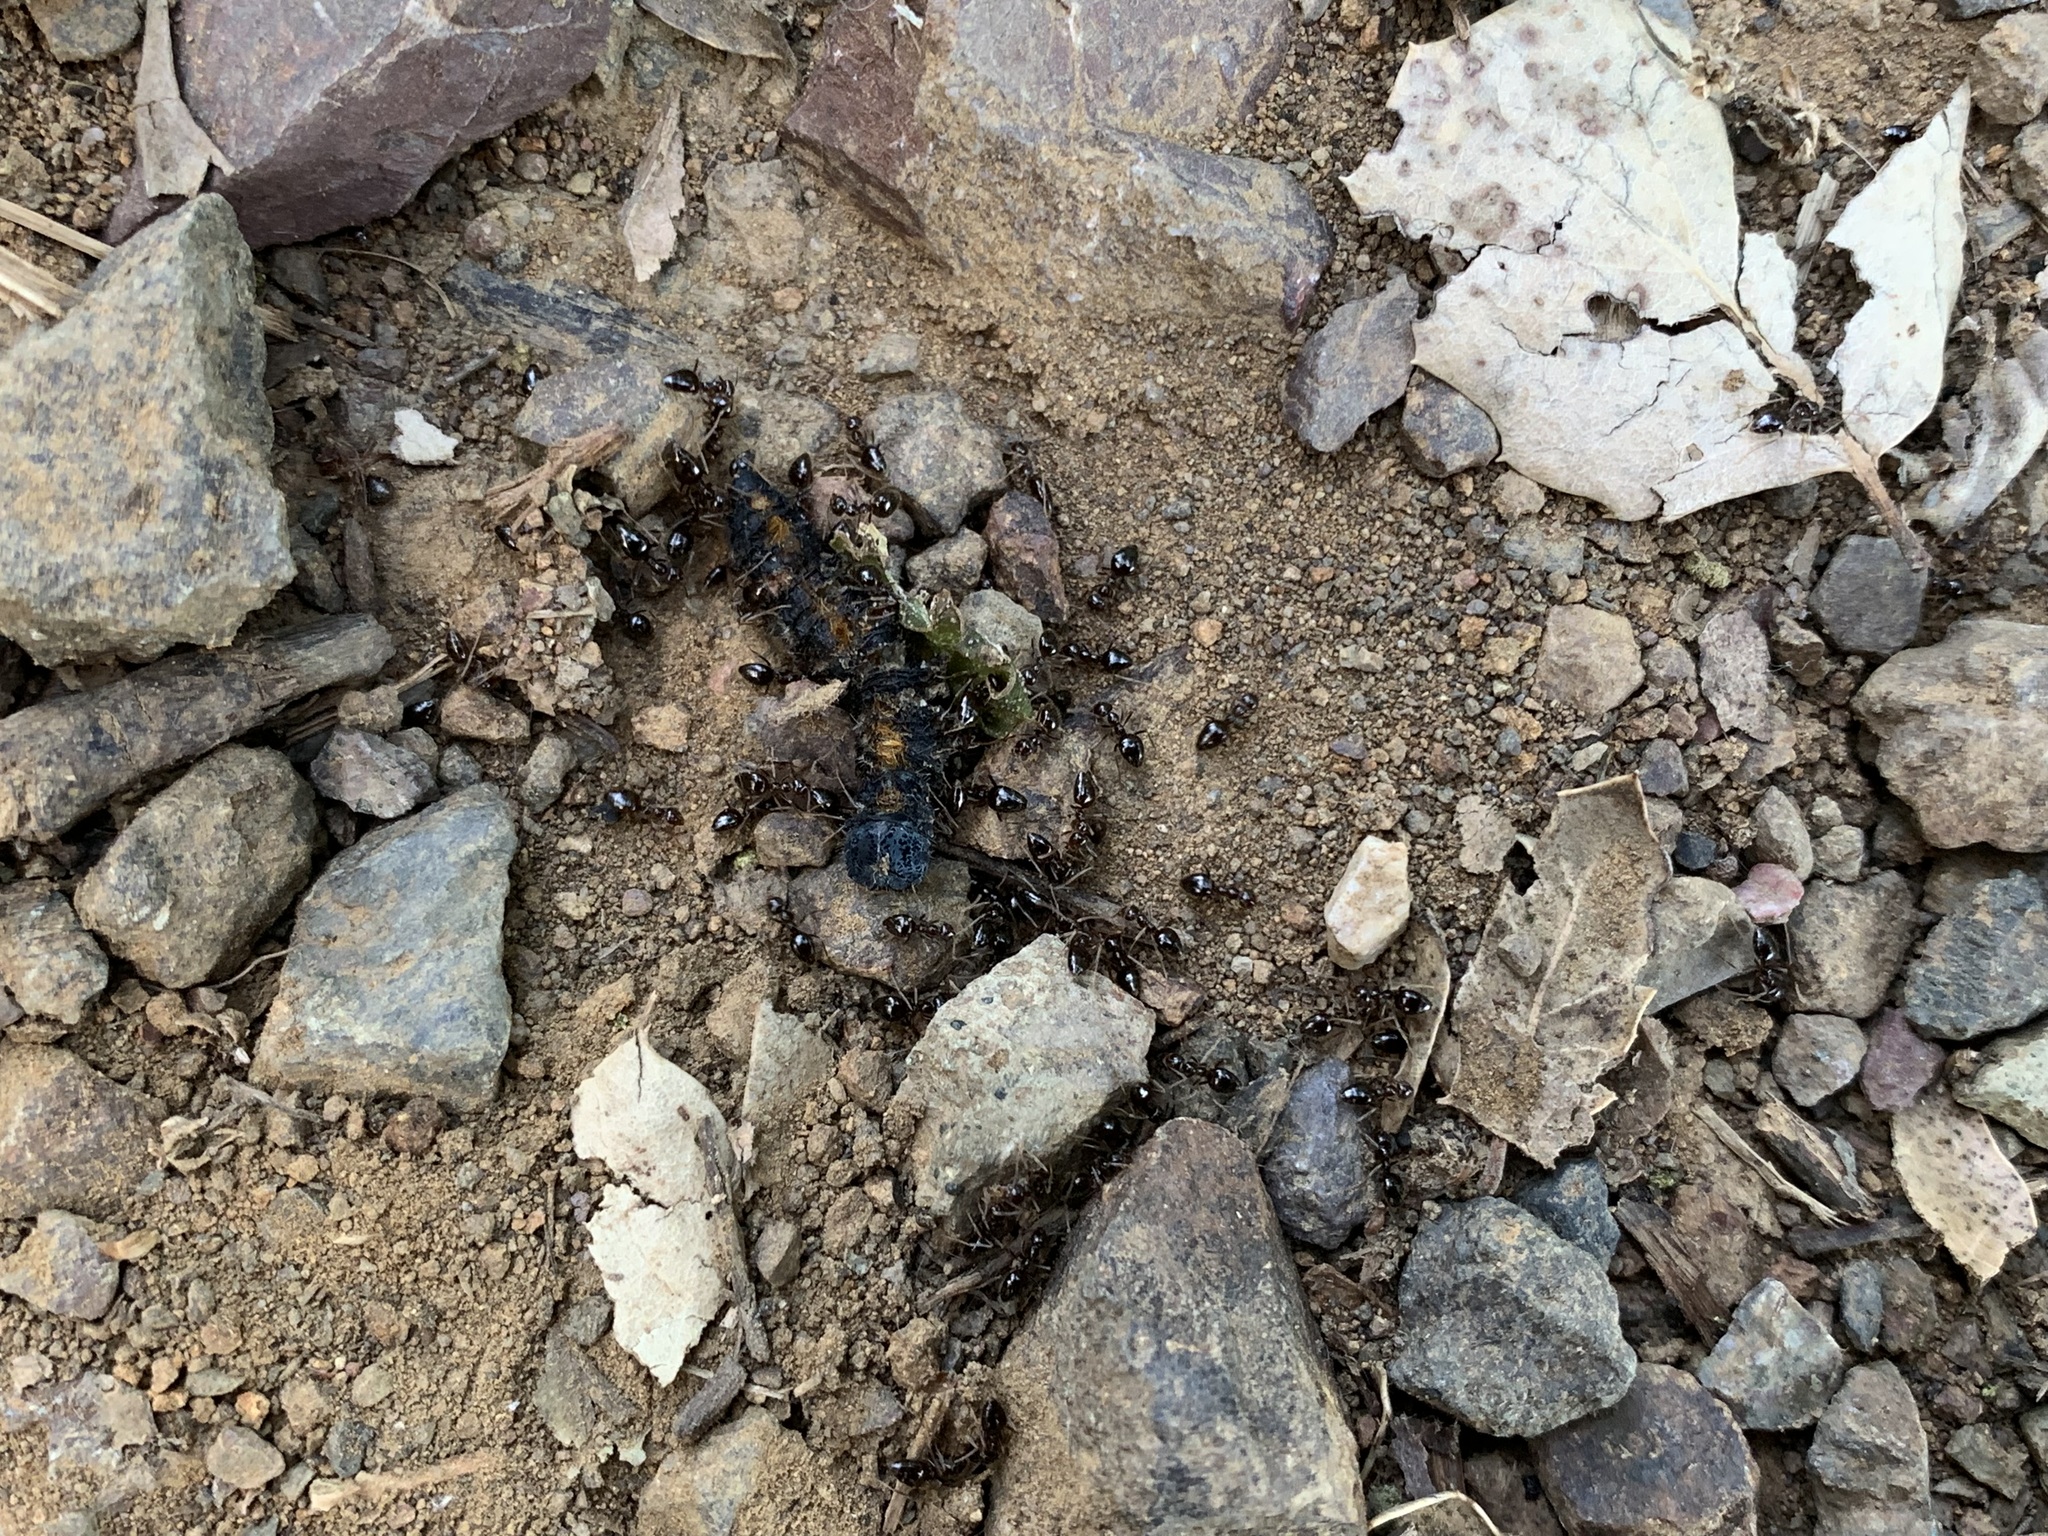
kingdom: Animalia
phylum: Arthropoda
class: Insecta
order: Hymenoptera
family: Formicidae
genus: Prenolepis
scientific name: Prenolepis imparis
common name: Small honey ant
